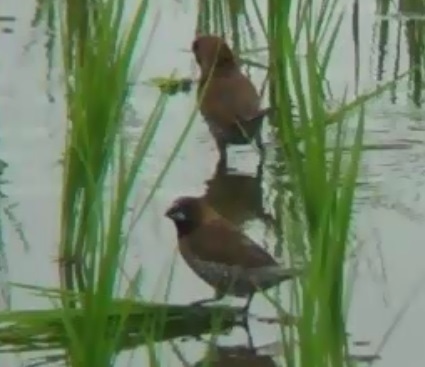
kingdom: Animalia
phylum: Chordata
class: Aves
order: Passeriformes
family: Estrildidae
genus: Lonchura
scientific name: Lonchura punctulata
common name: Scaly-breasted munia
